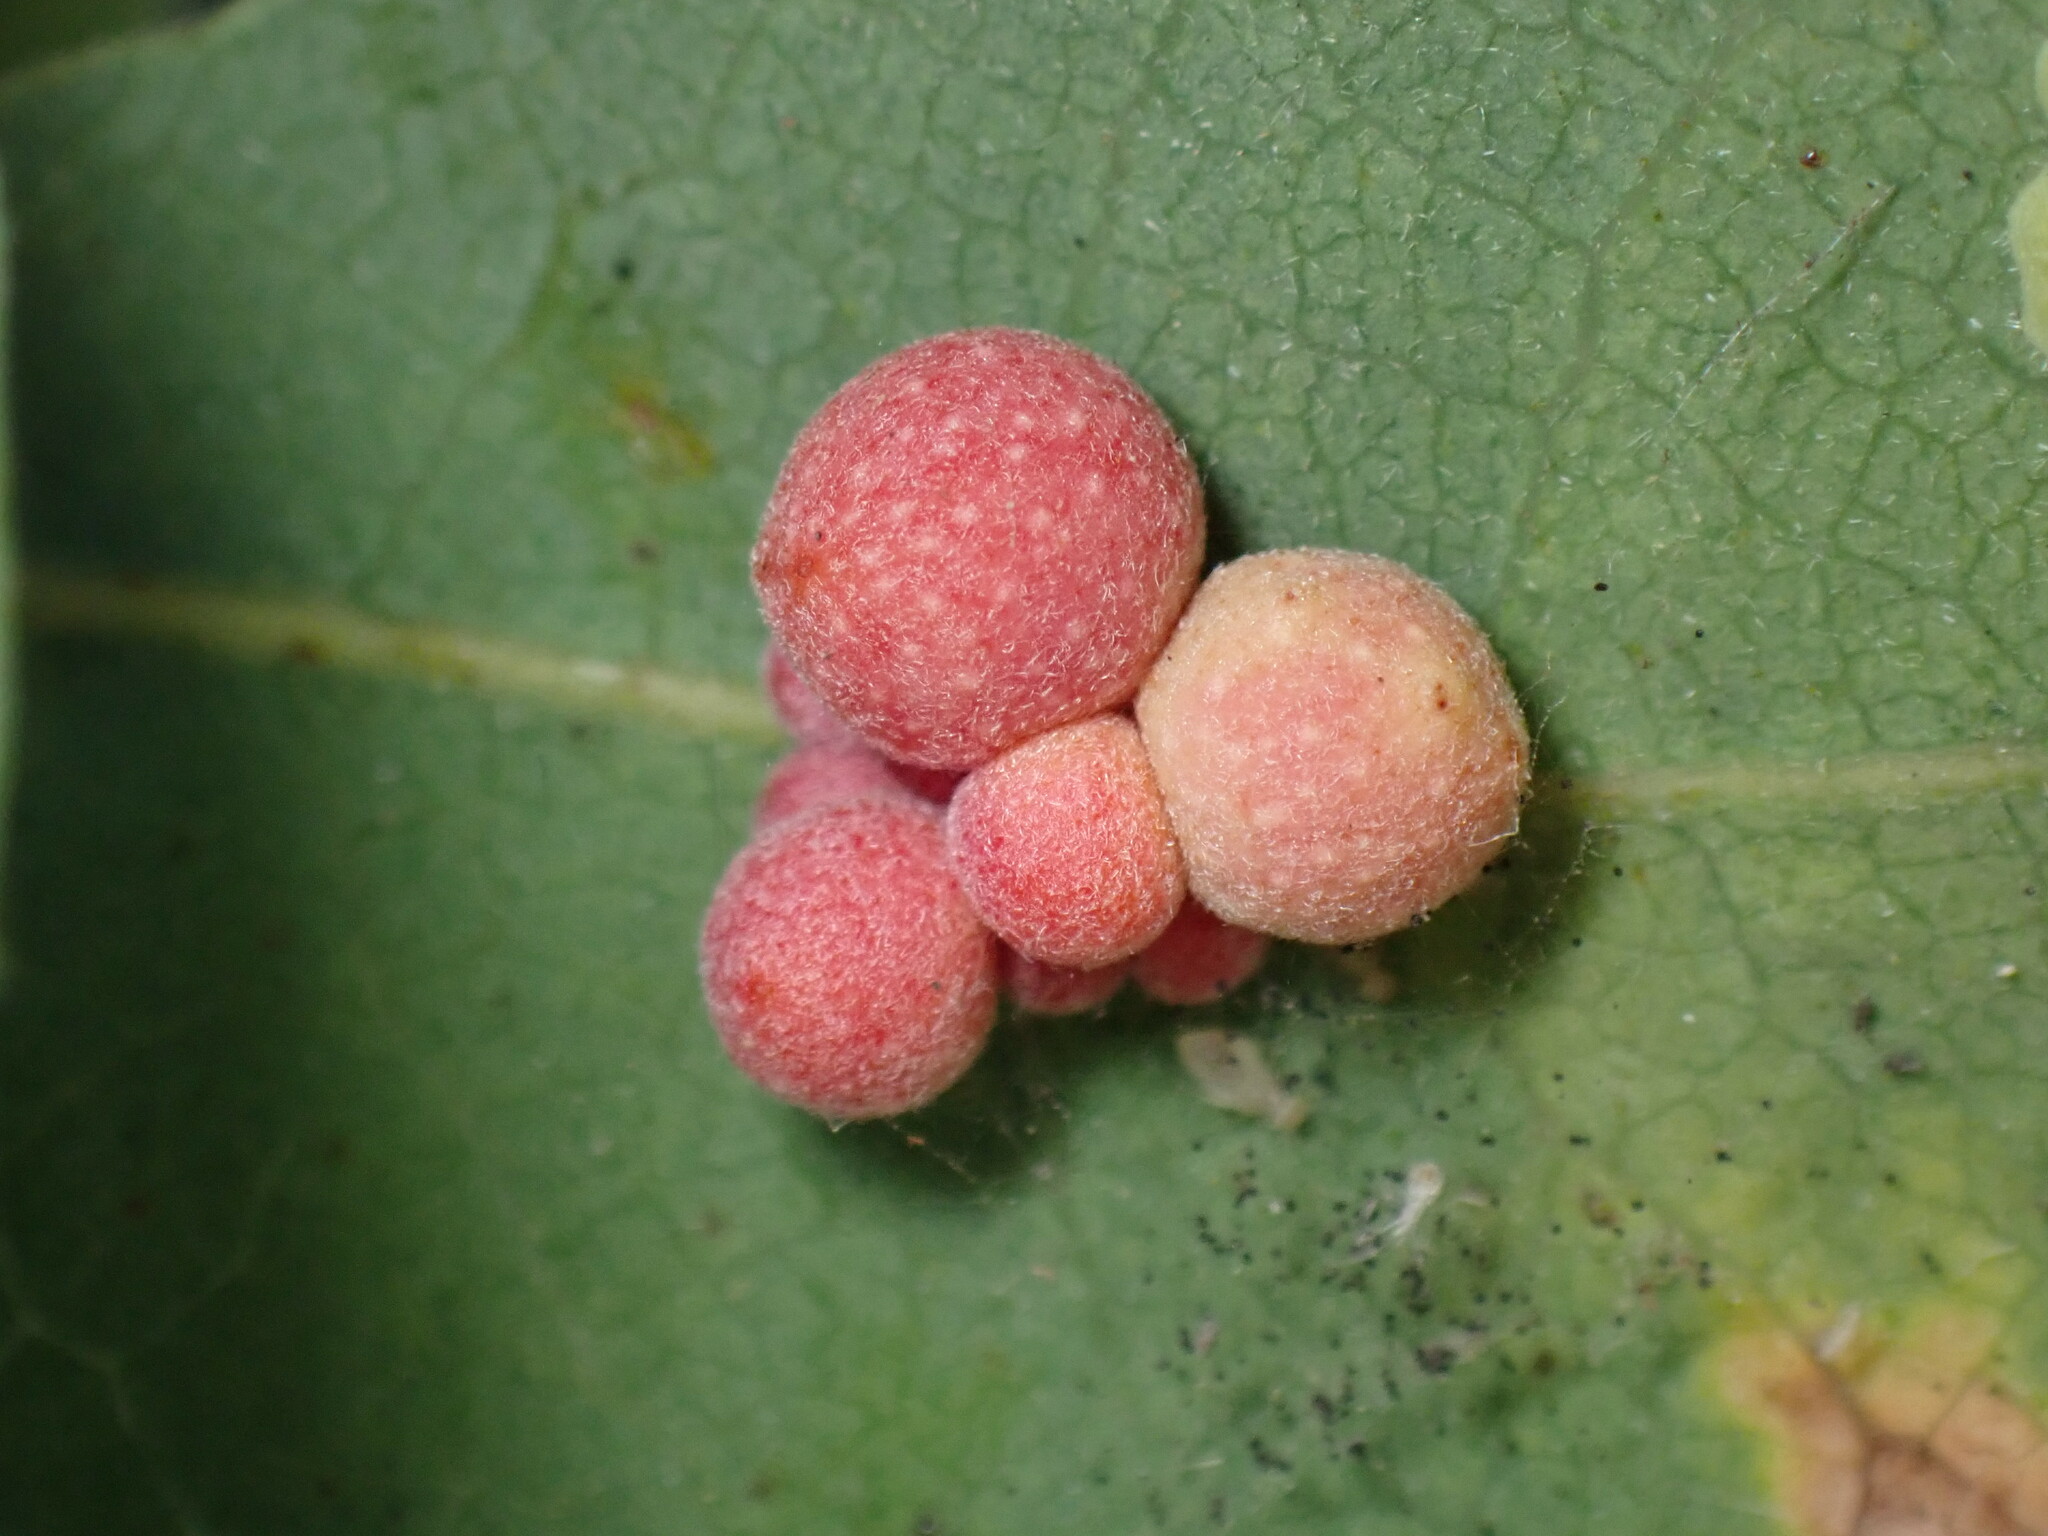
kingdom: Animalia
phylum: Arthropoda
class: Insecta
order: Hymenoptera
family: Cynipidae
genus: Andricus
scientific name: Andricus
